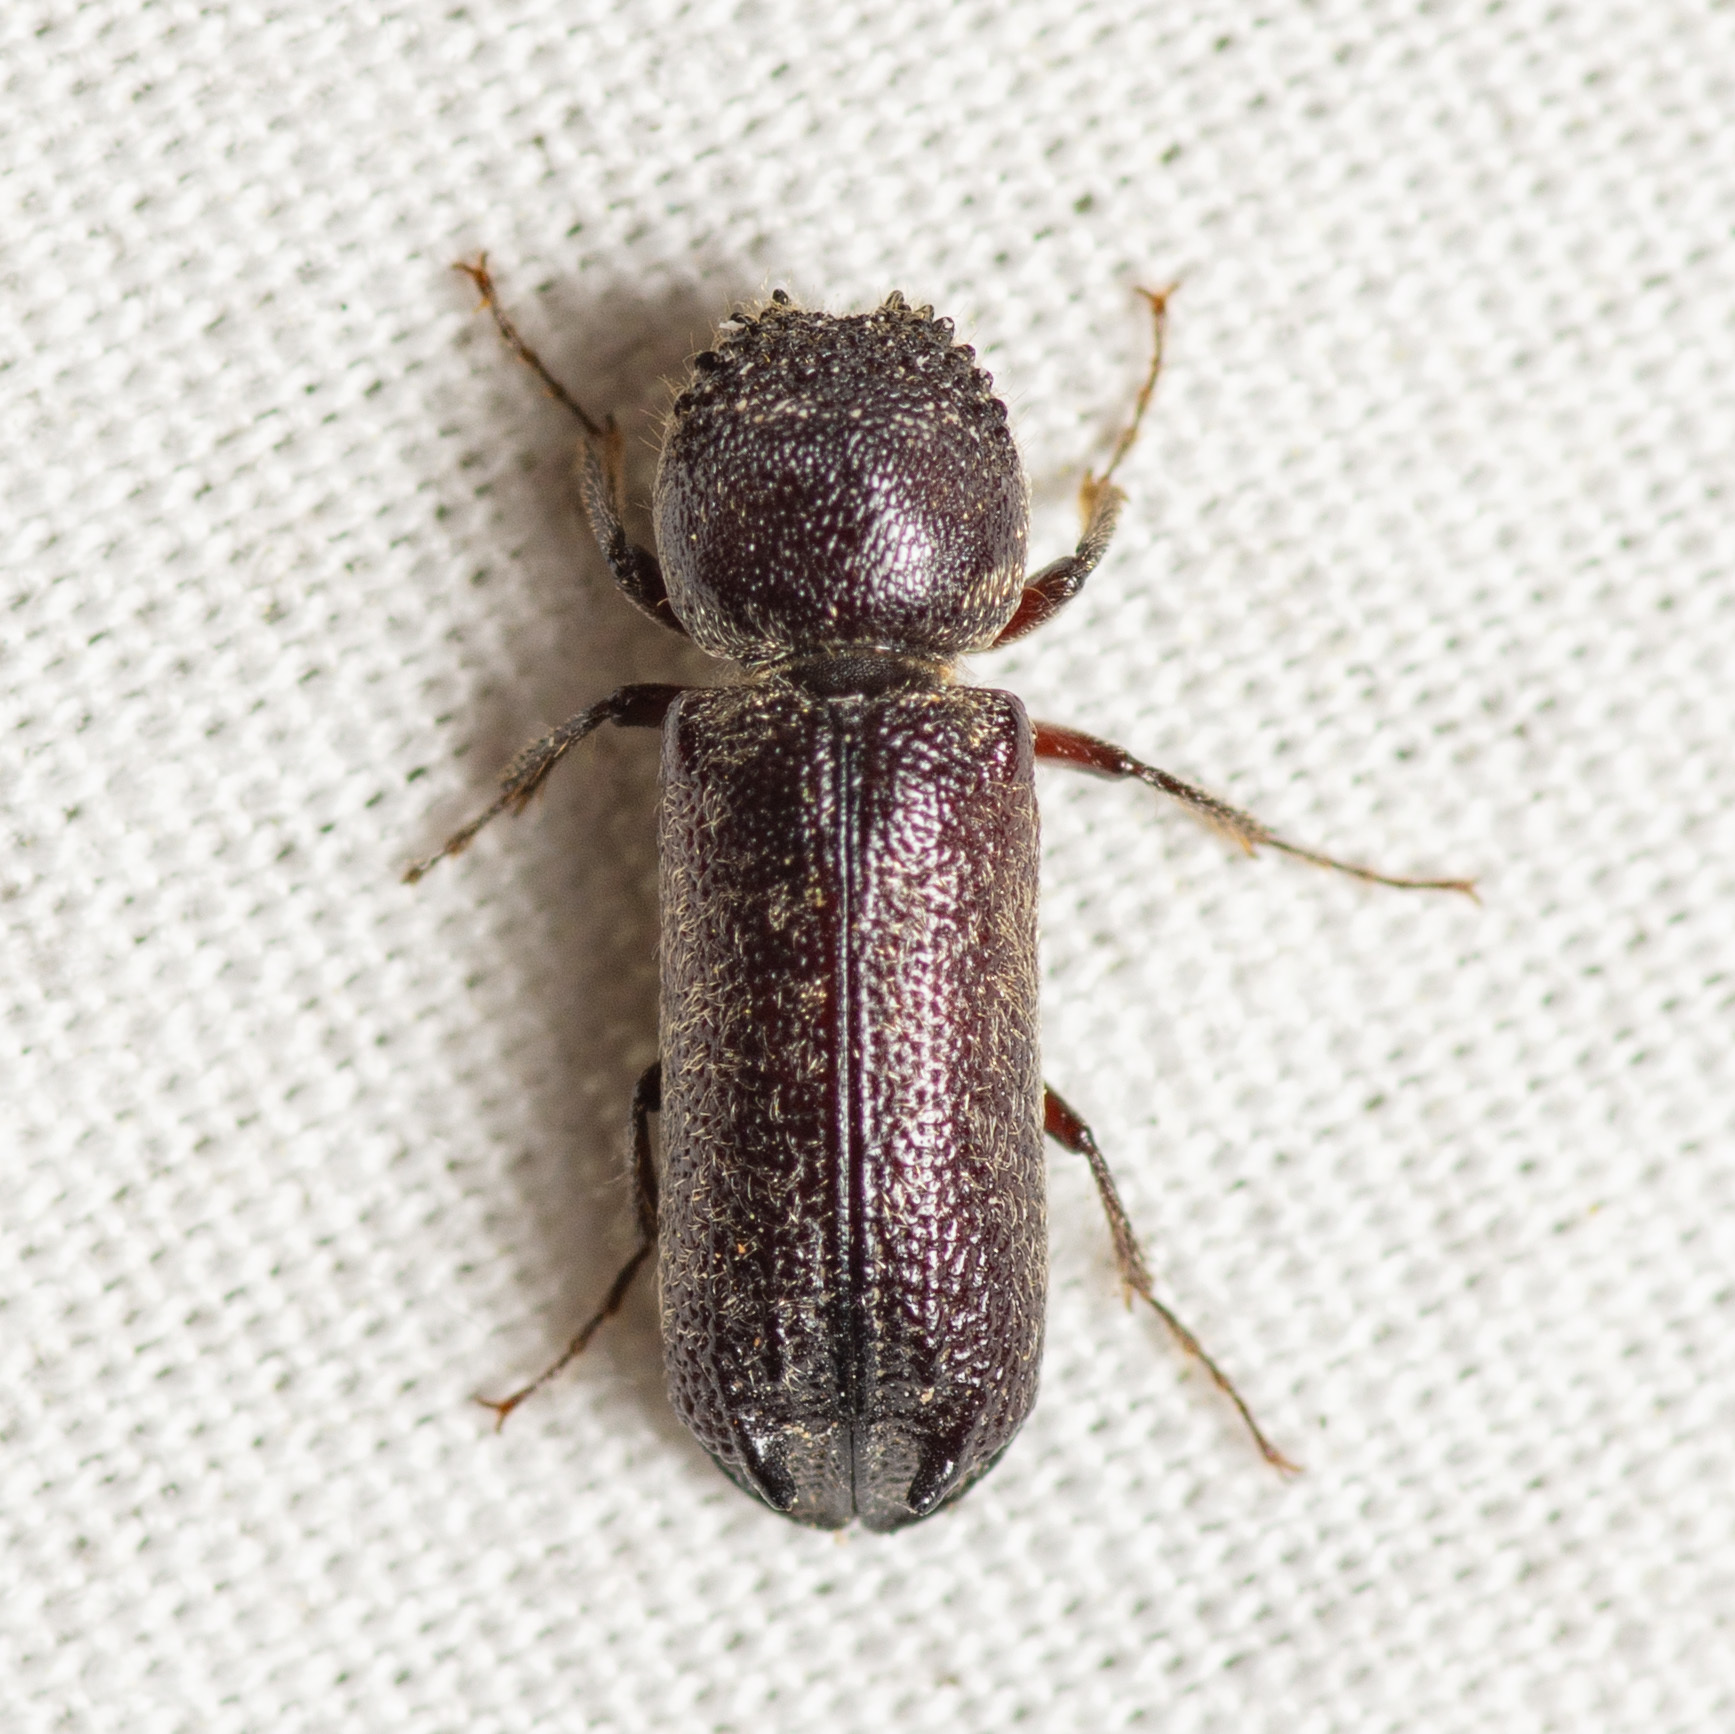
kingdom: Animalia
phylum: Arthropoda
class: Insecta
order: Coleoptera
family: Bostrichidae
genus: Amphicerus
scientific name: Amphicerus bicaudatus
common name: Apple twig borer
